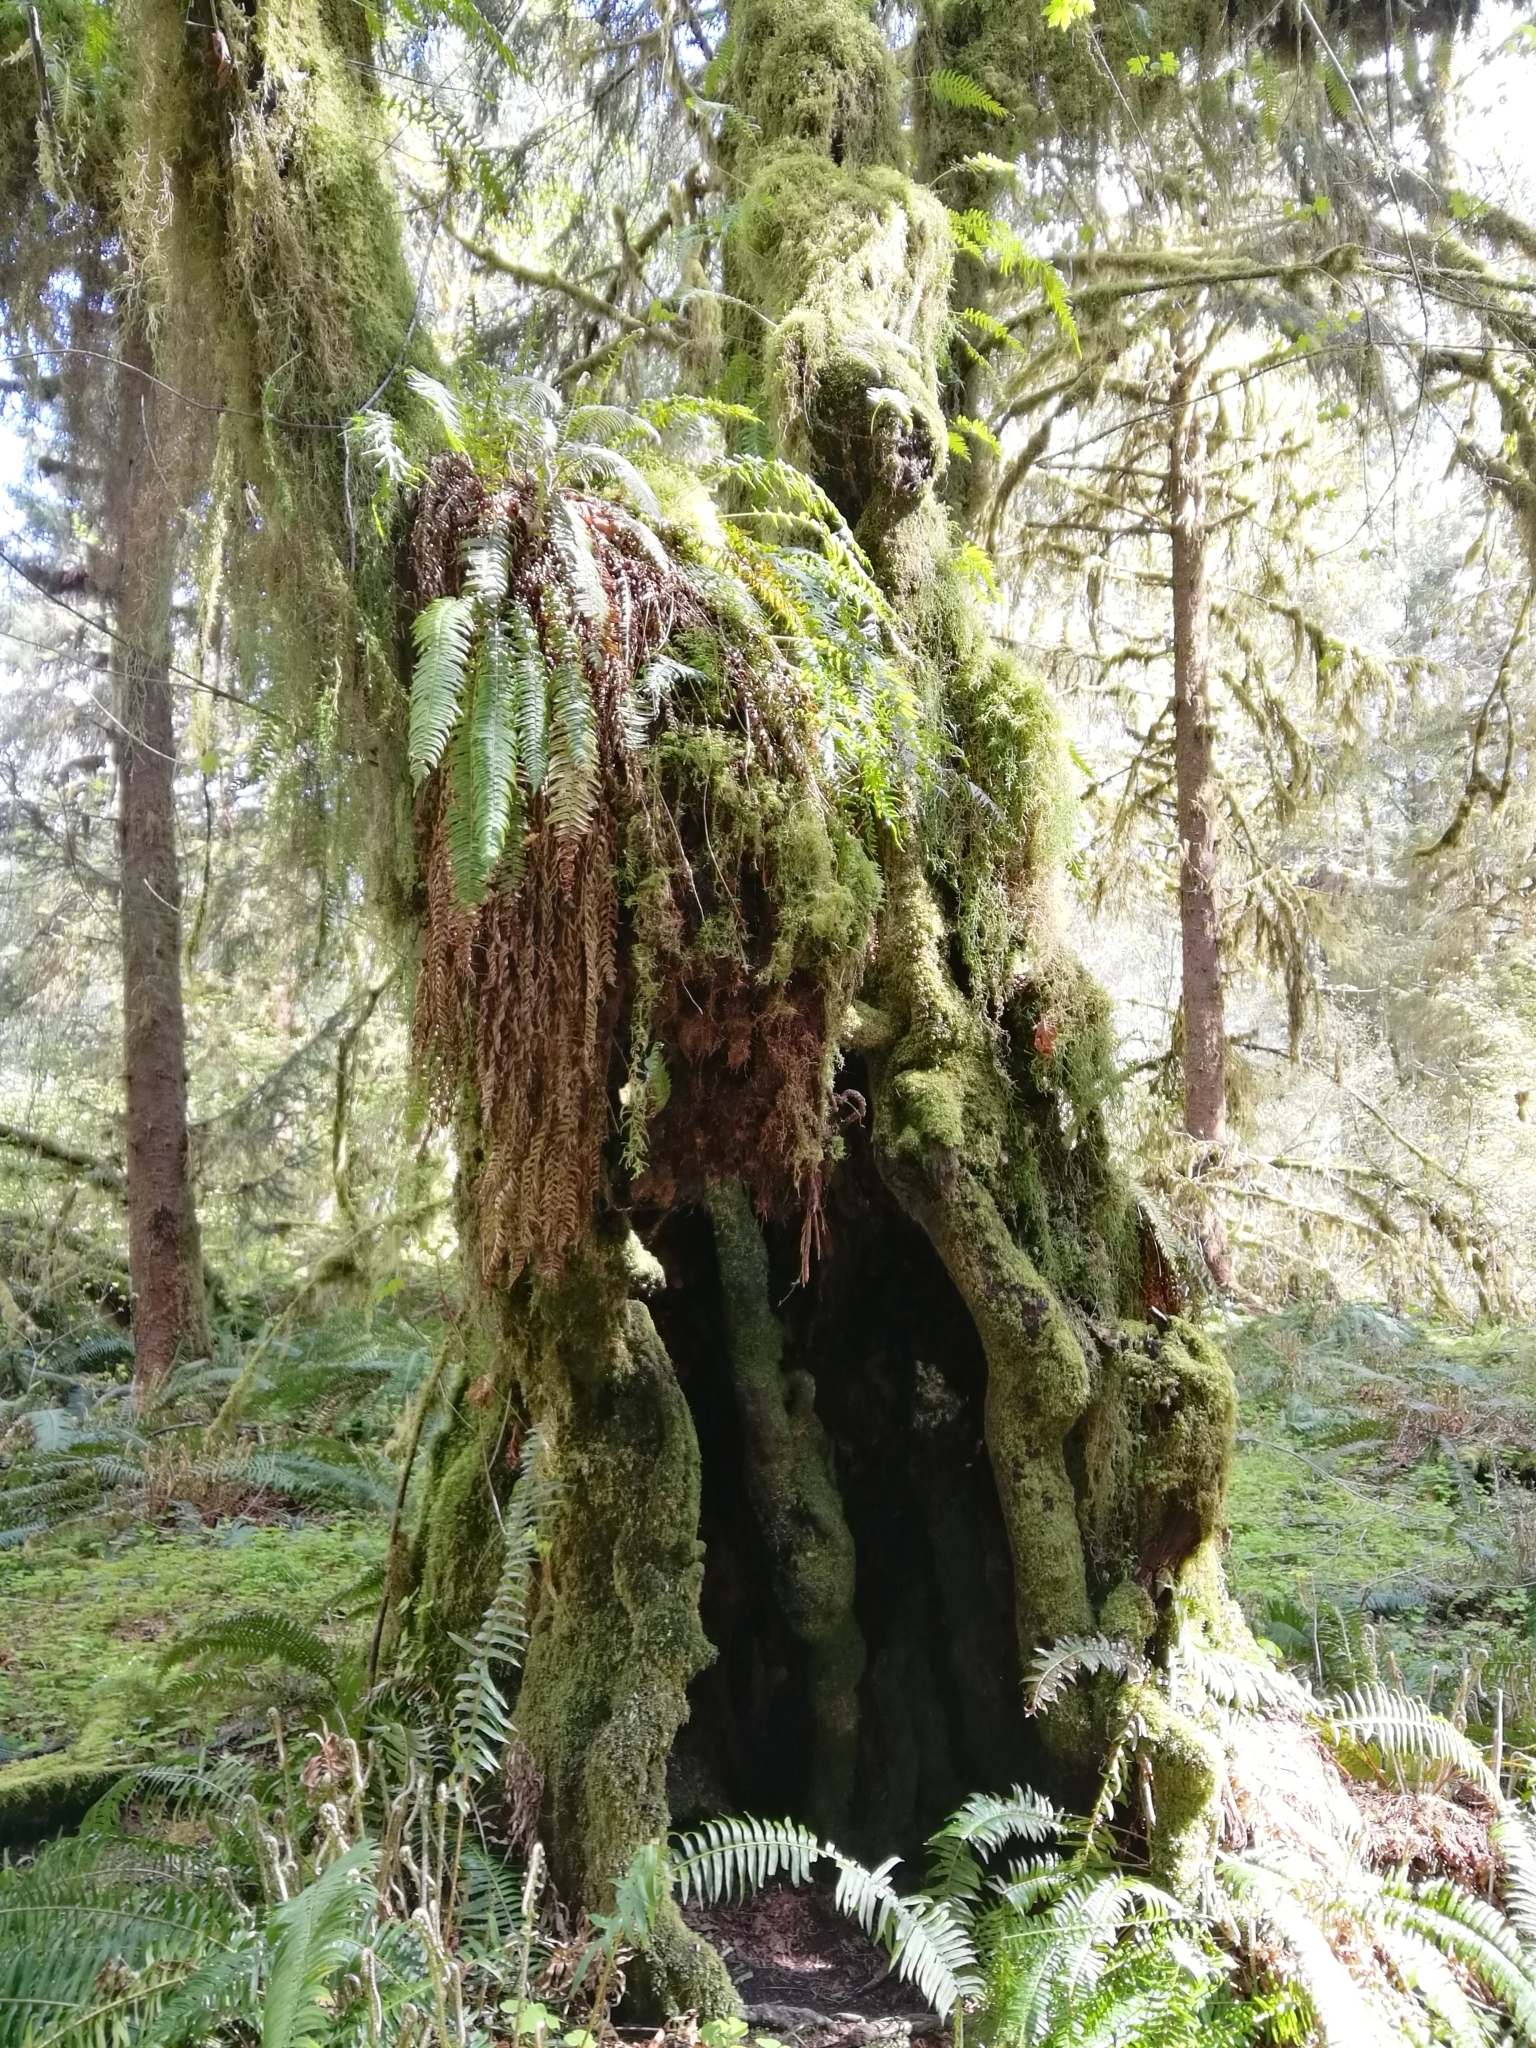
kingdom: Plantae
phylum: Tracheophyta
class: Polypodiopsida
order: Polypodiales
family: Polypodiaceae
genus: Polypodium
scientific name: Polypodium glycyrrhiza
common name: Licorice fern
